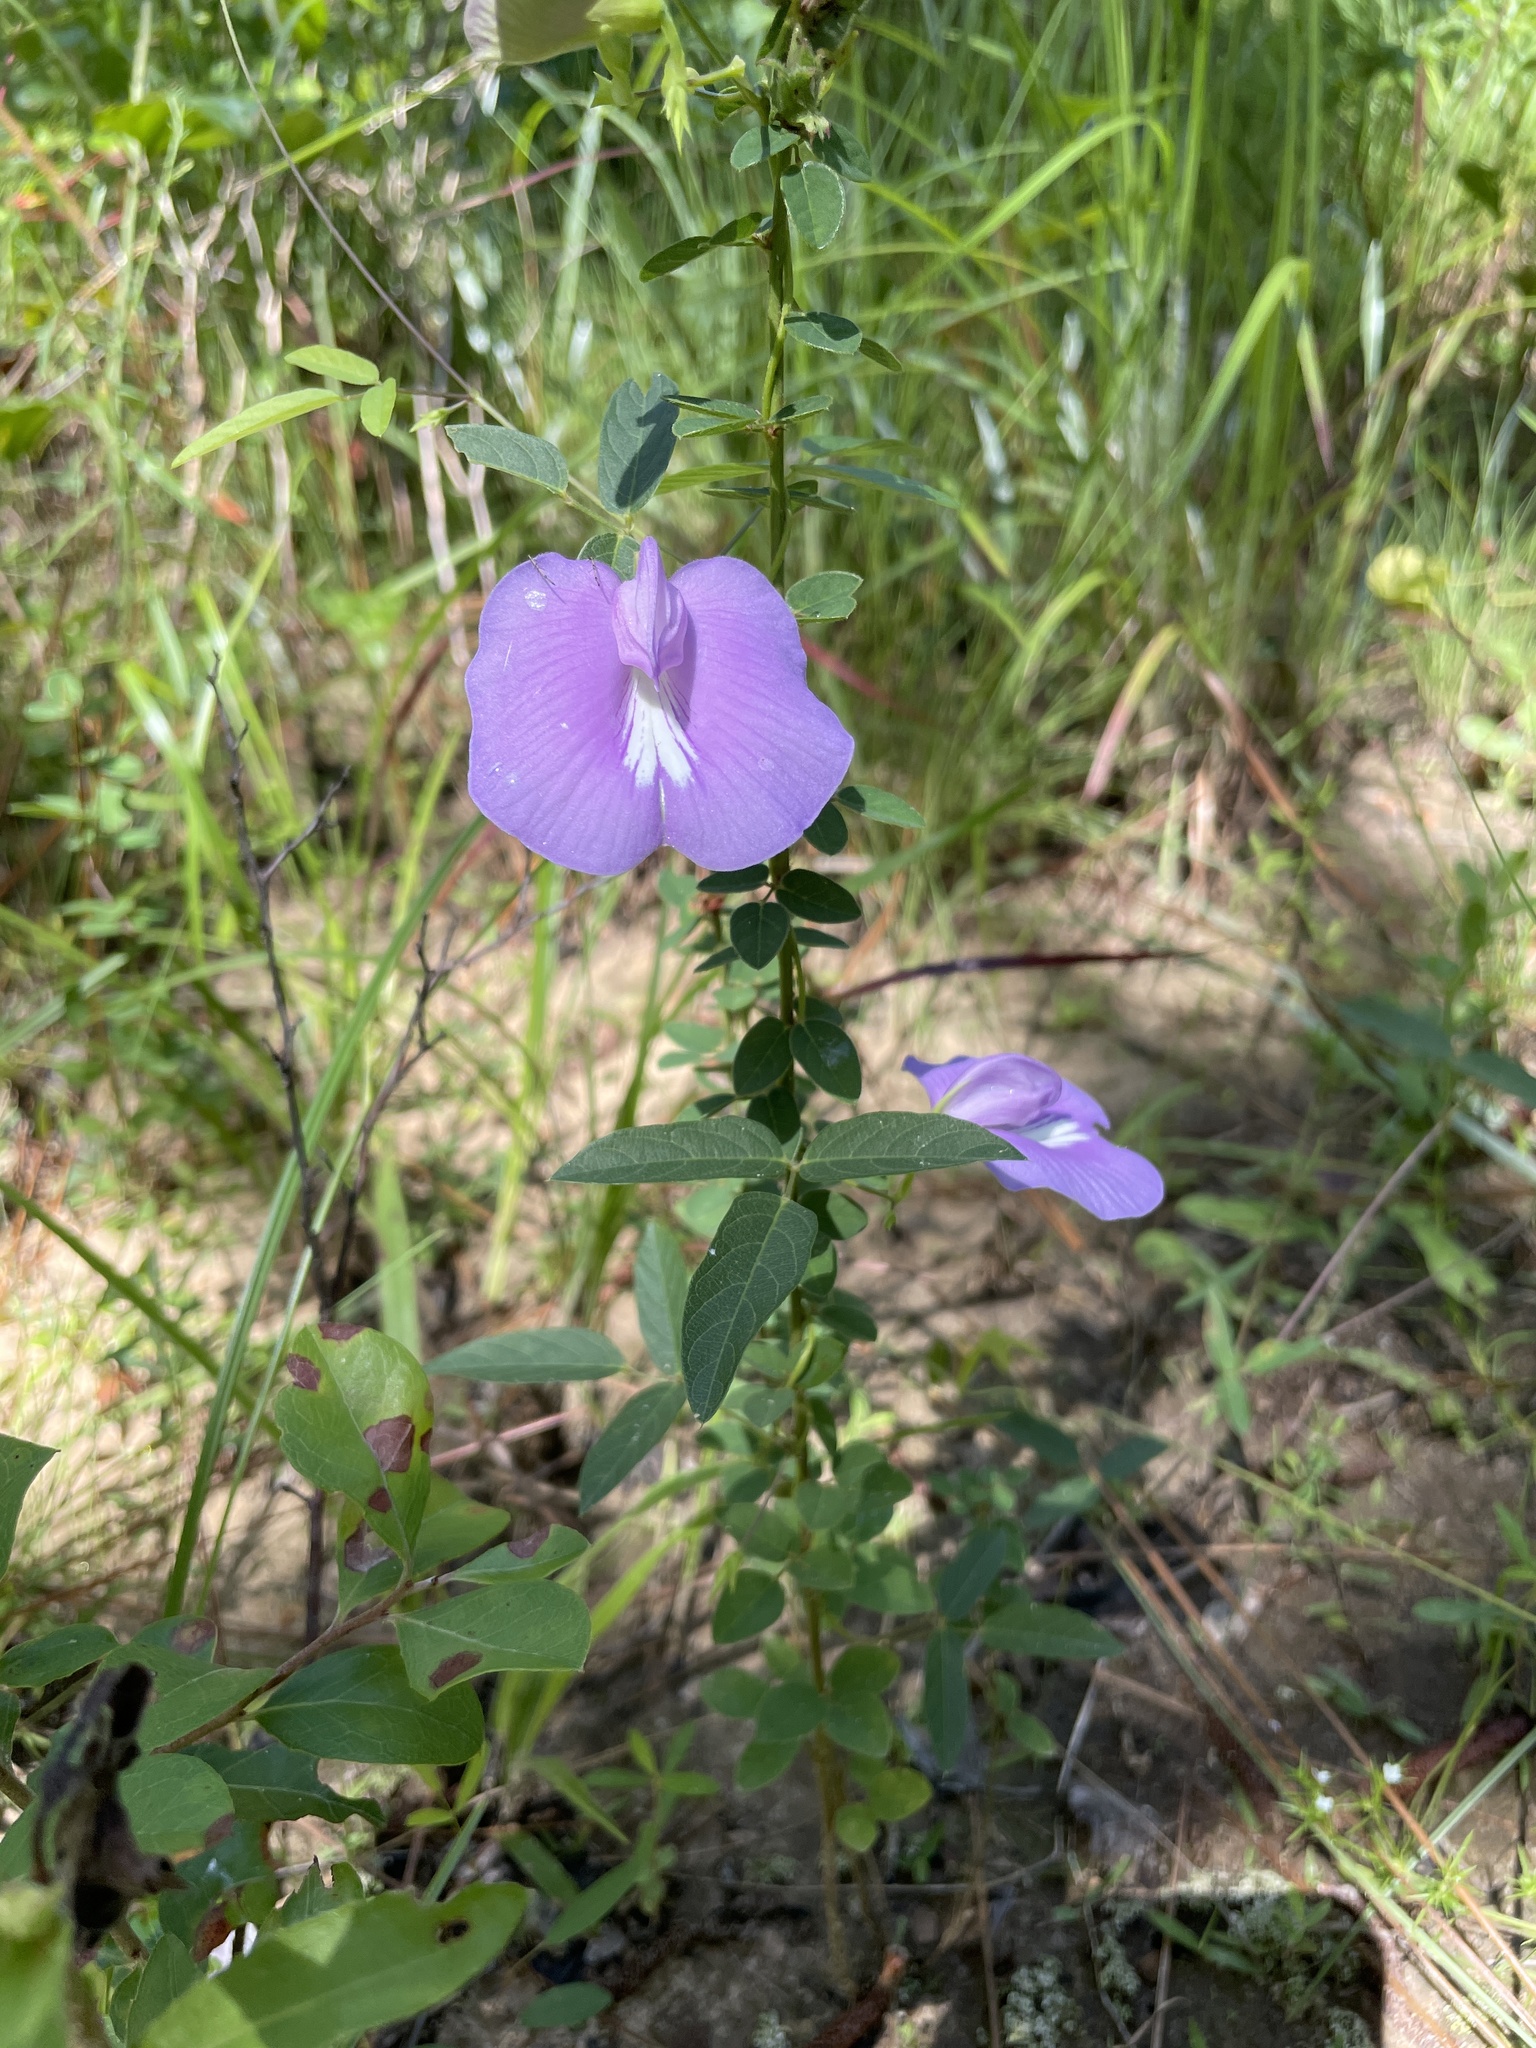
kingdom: Plantae
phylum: Tracheophyta
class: Magnoliopsida
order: Fabales
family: Fabaceae
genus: Centrosema
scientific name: Centrosema virginianum
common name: Butterfly-pea
